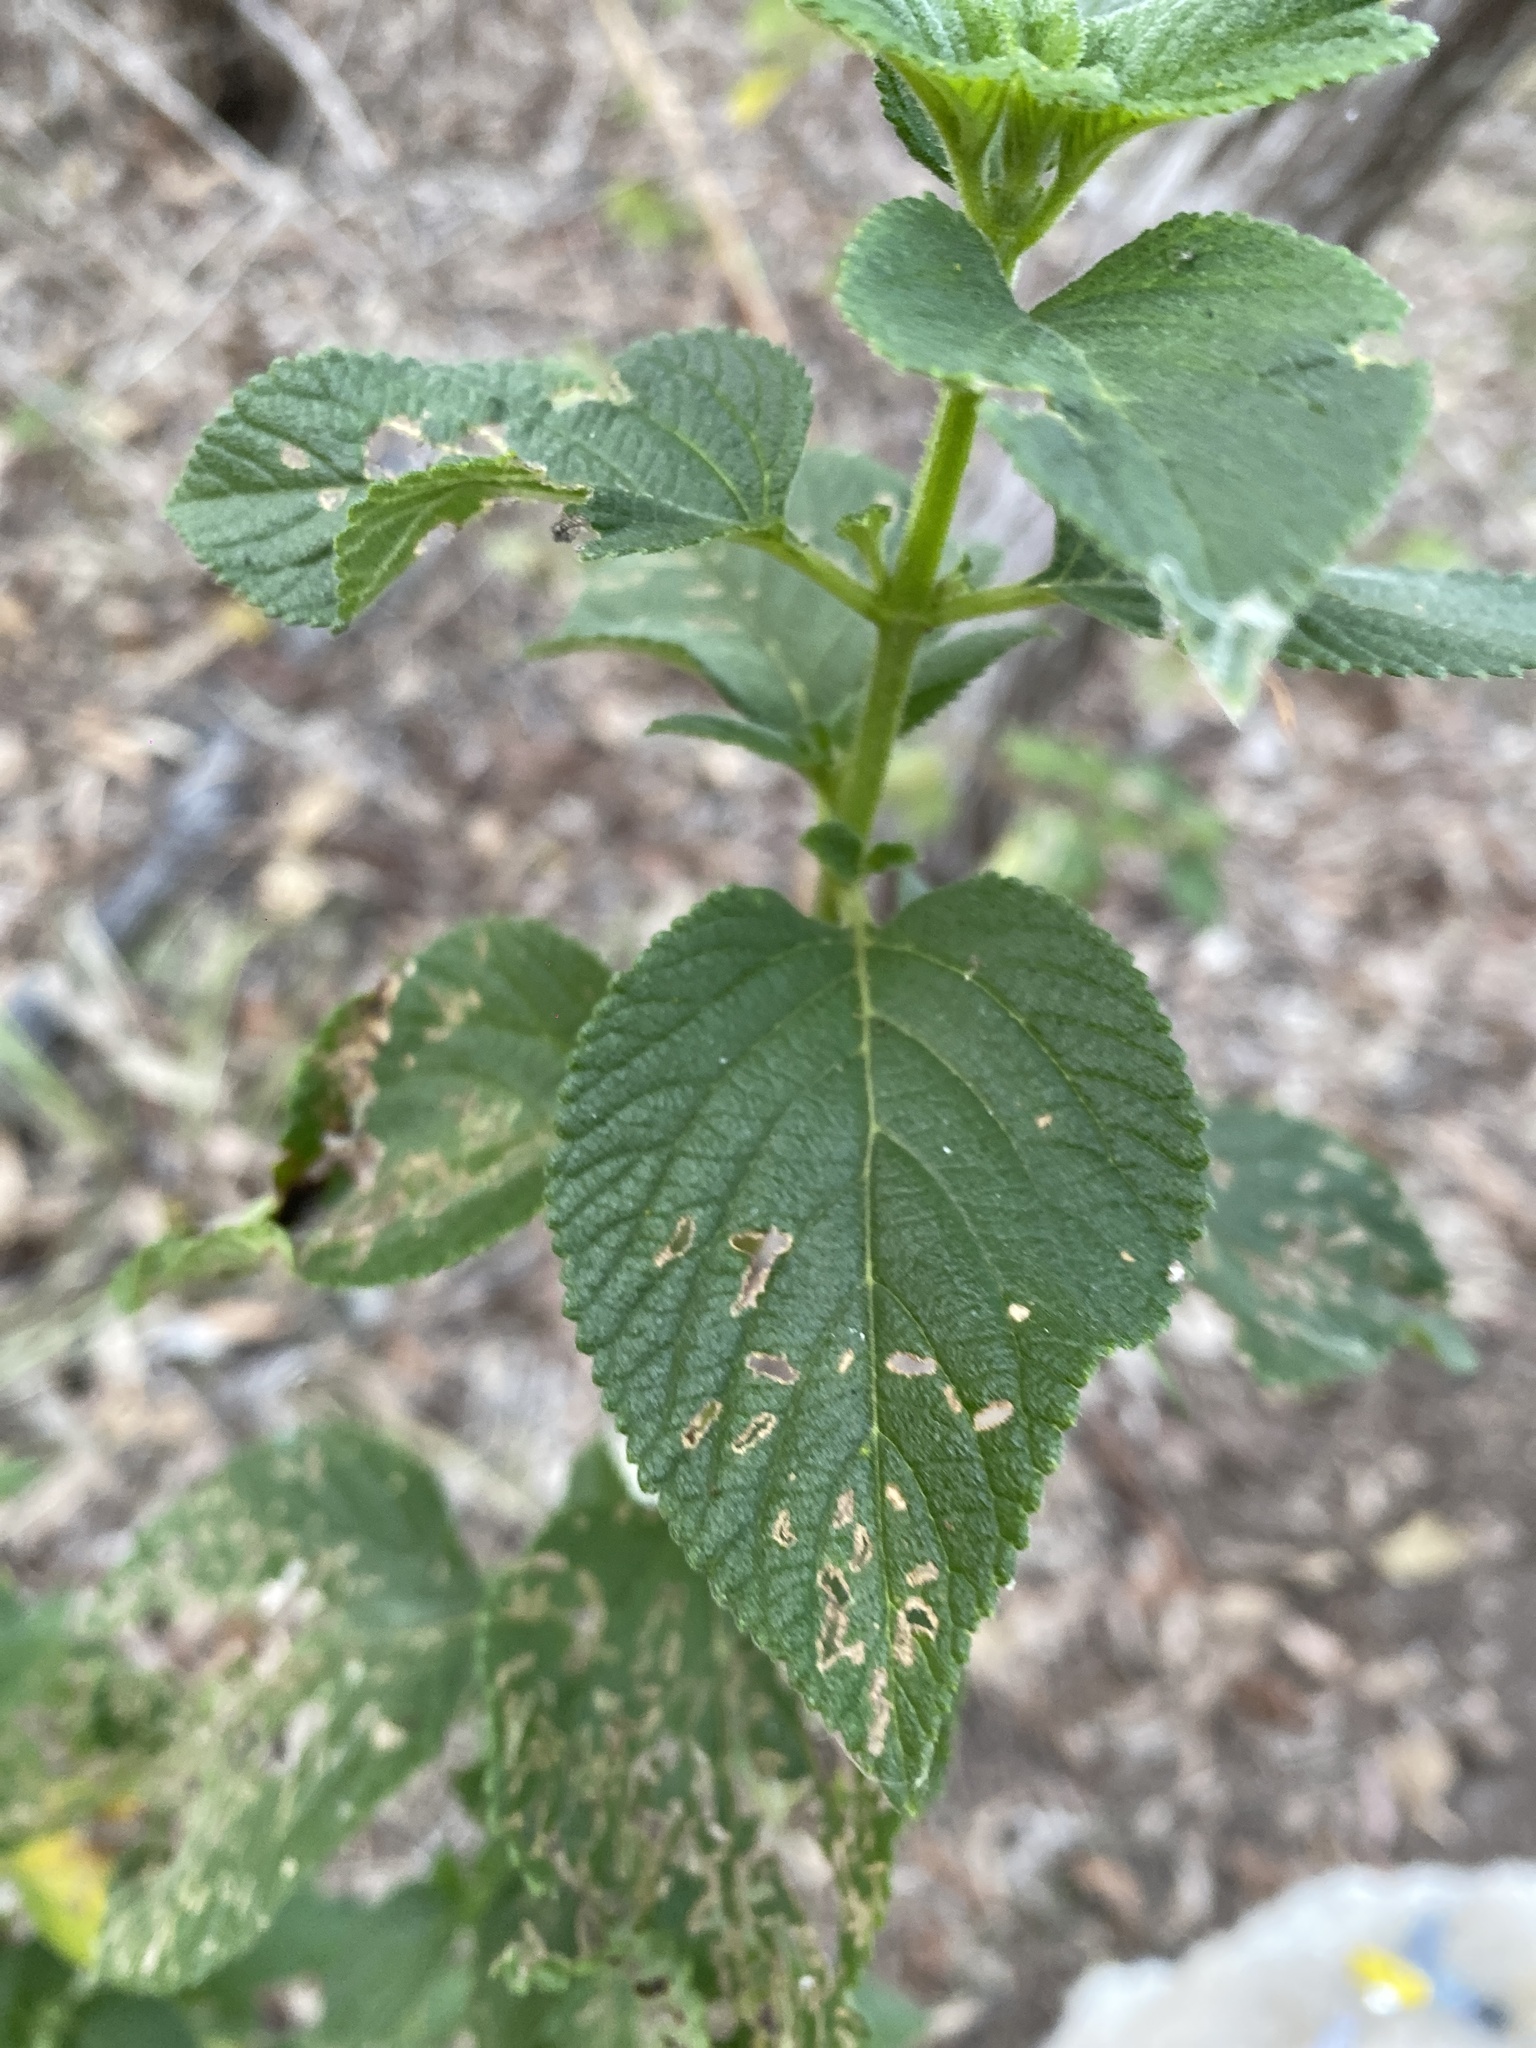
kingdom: Plantae
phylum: Tracheophyta
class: Magnoliopsida
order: Lamiales
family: Verbenaceae
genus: Lantana
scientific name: Lantana camara
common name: Lantana
